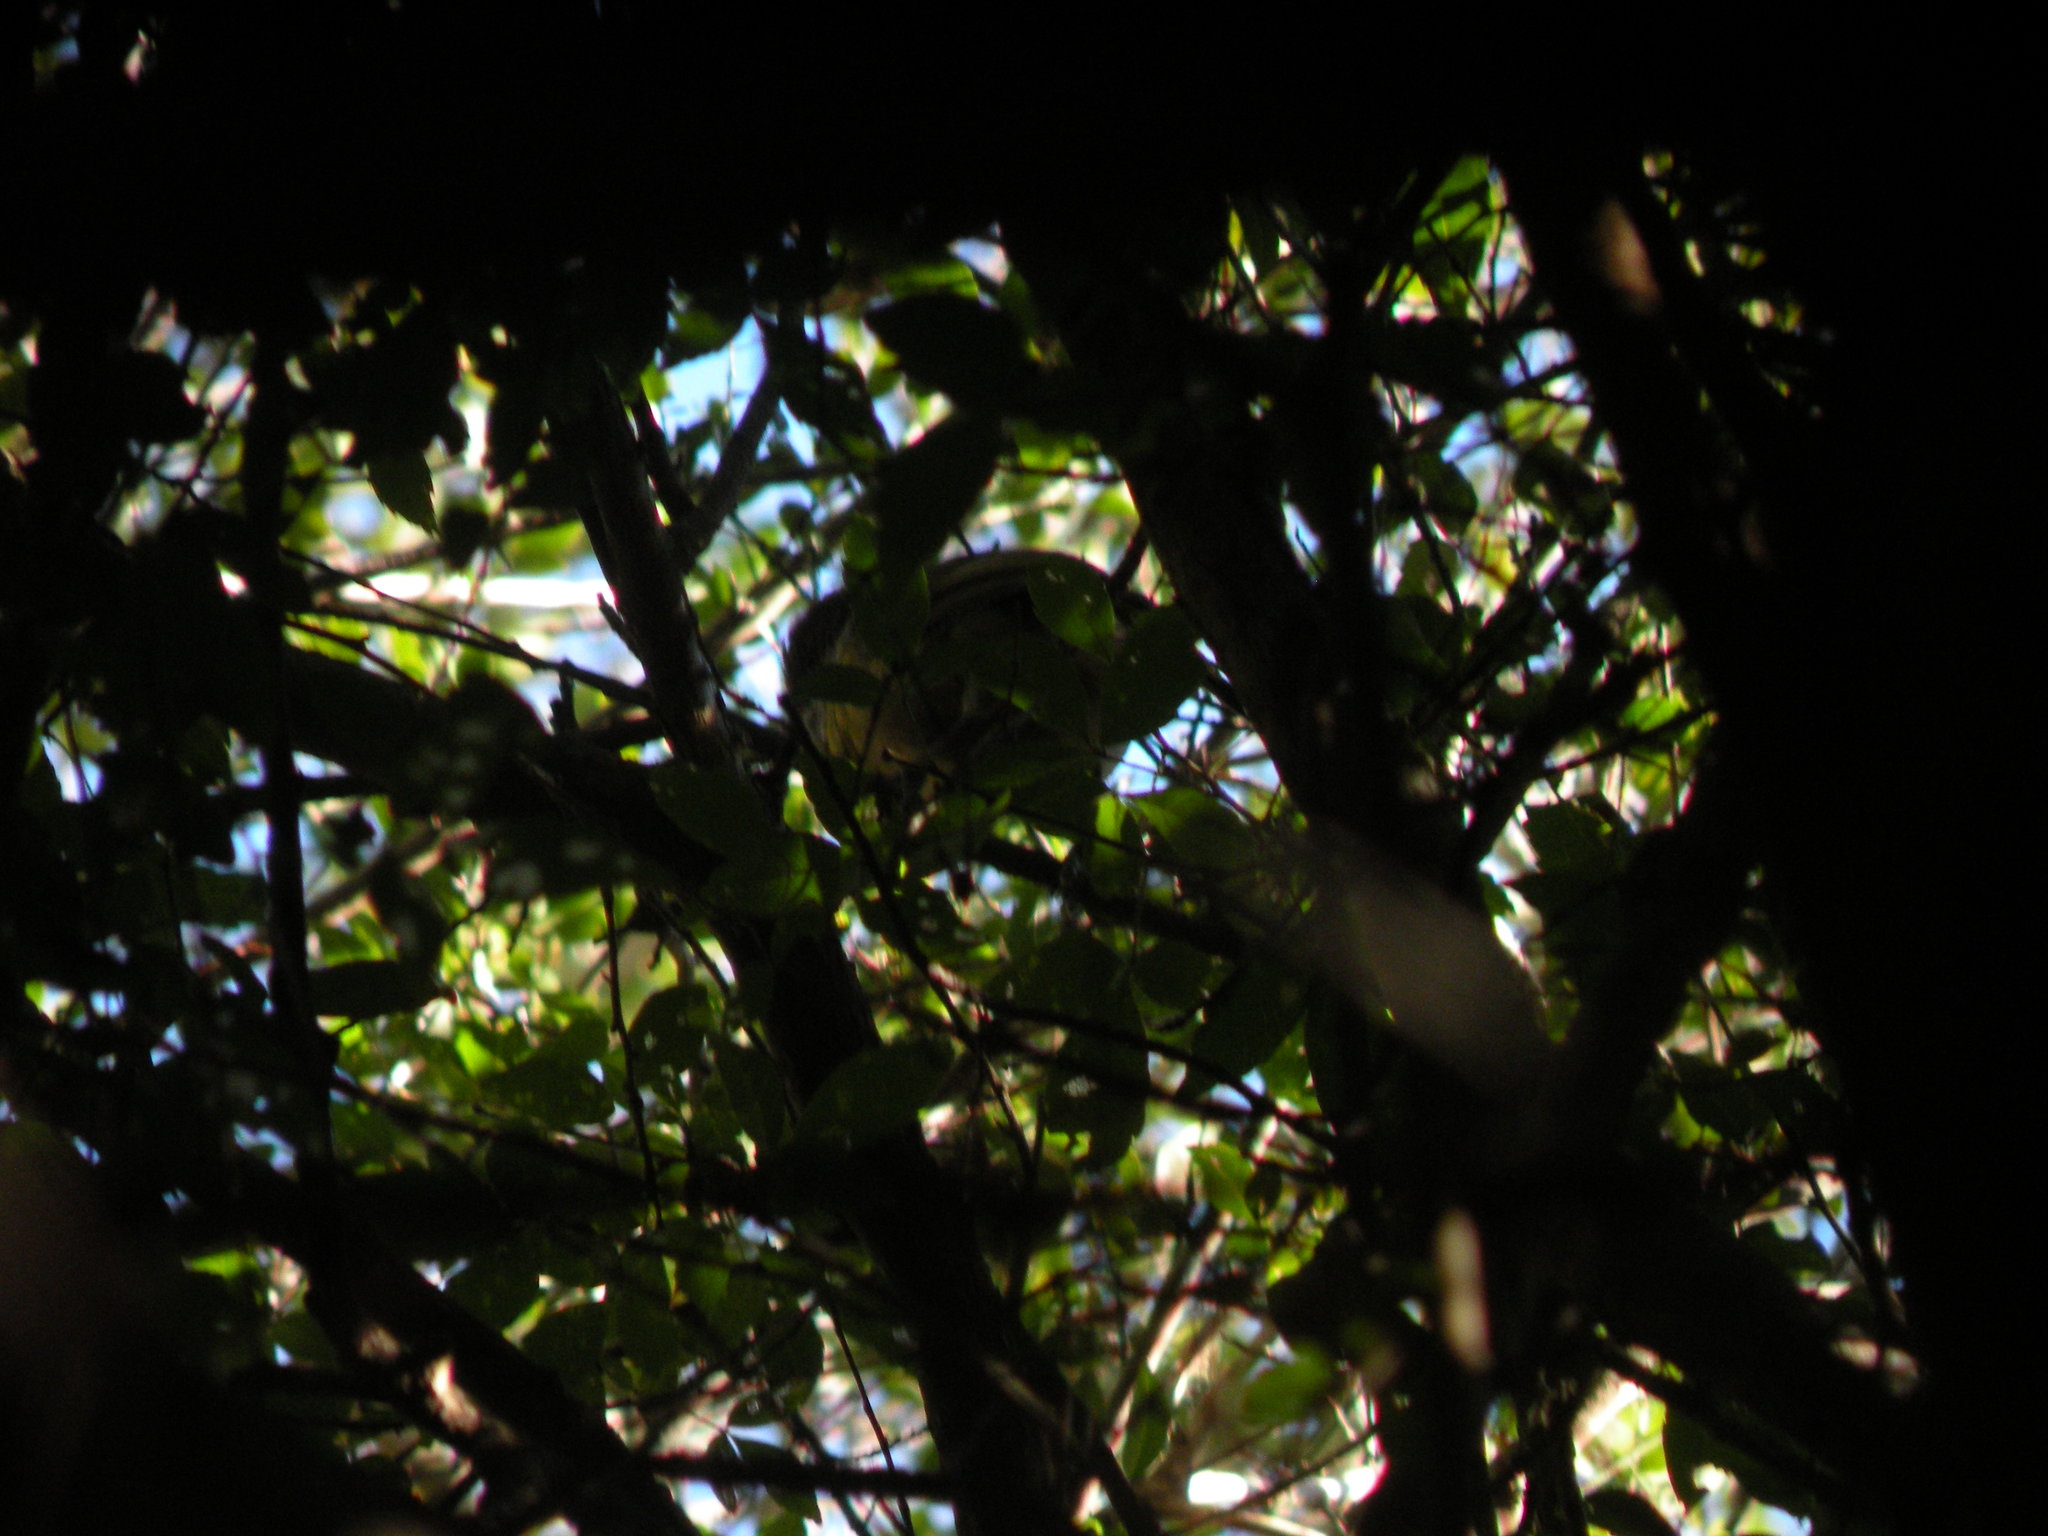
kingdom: Animalia
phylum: Chordata
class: Aves
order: Passeriformes
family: Cotingidae
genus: Pachyramphus
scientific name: Pachyramphus viridis
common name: Green-backed becard
